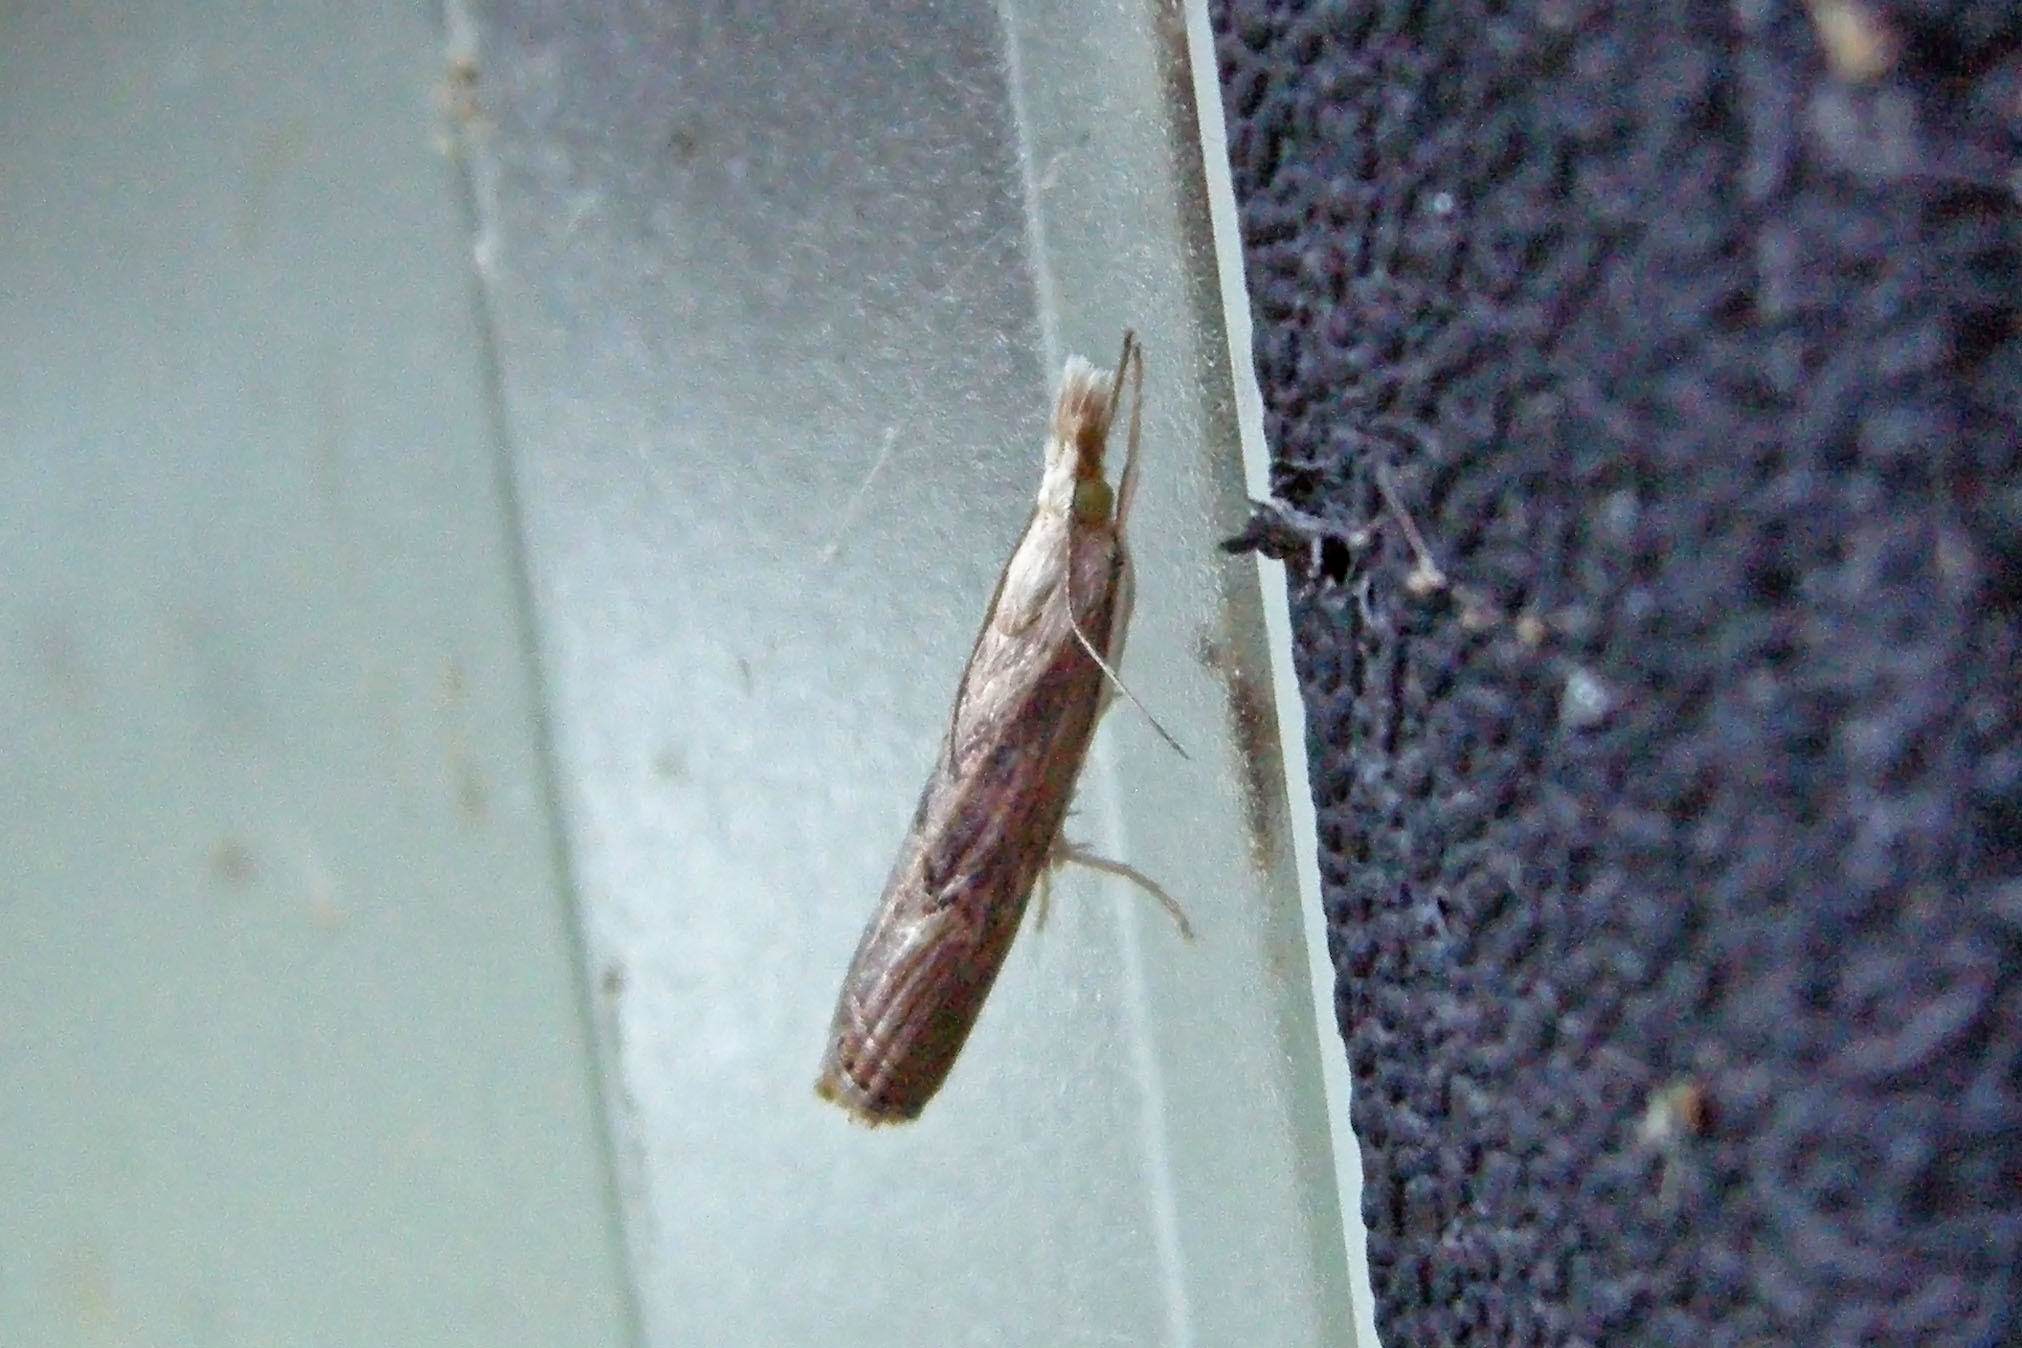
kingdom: Animalia
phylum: Arthropoda
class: Insecta
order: Lepidoptera
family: Crambidae
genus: Parapediasia
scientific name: Parapediasia teterellus
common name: Bluegrass webworm moth
